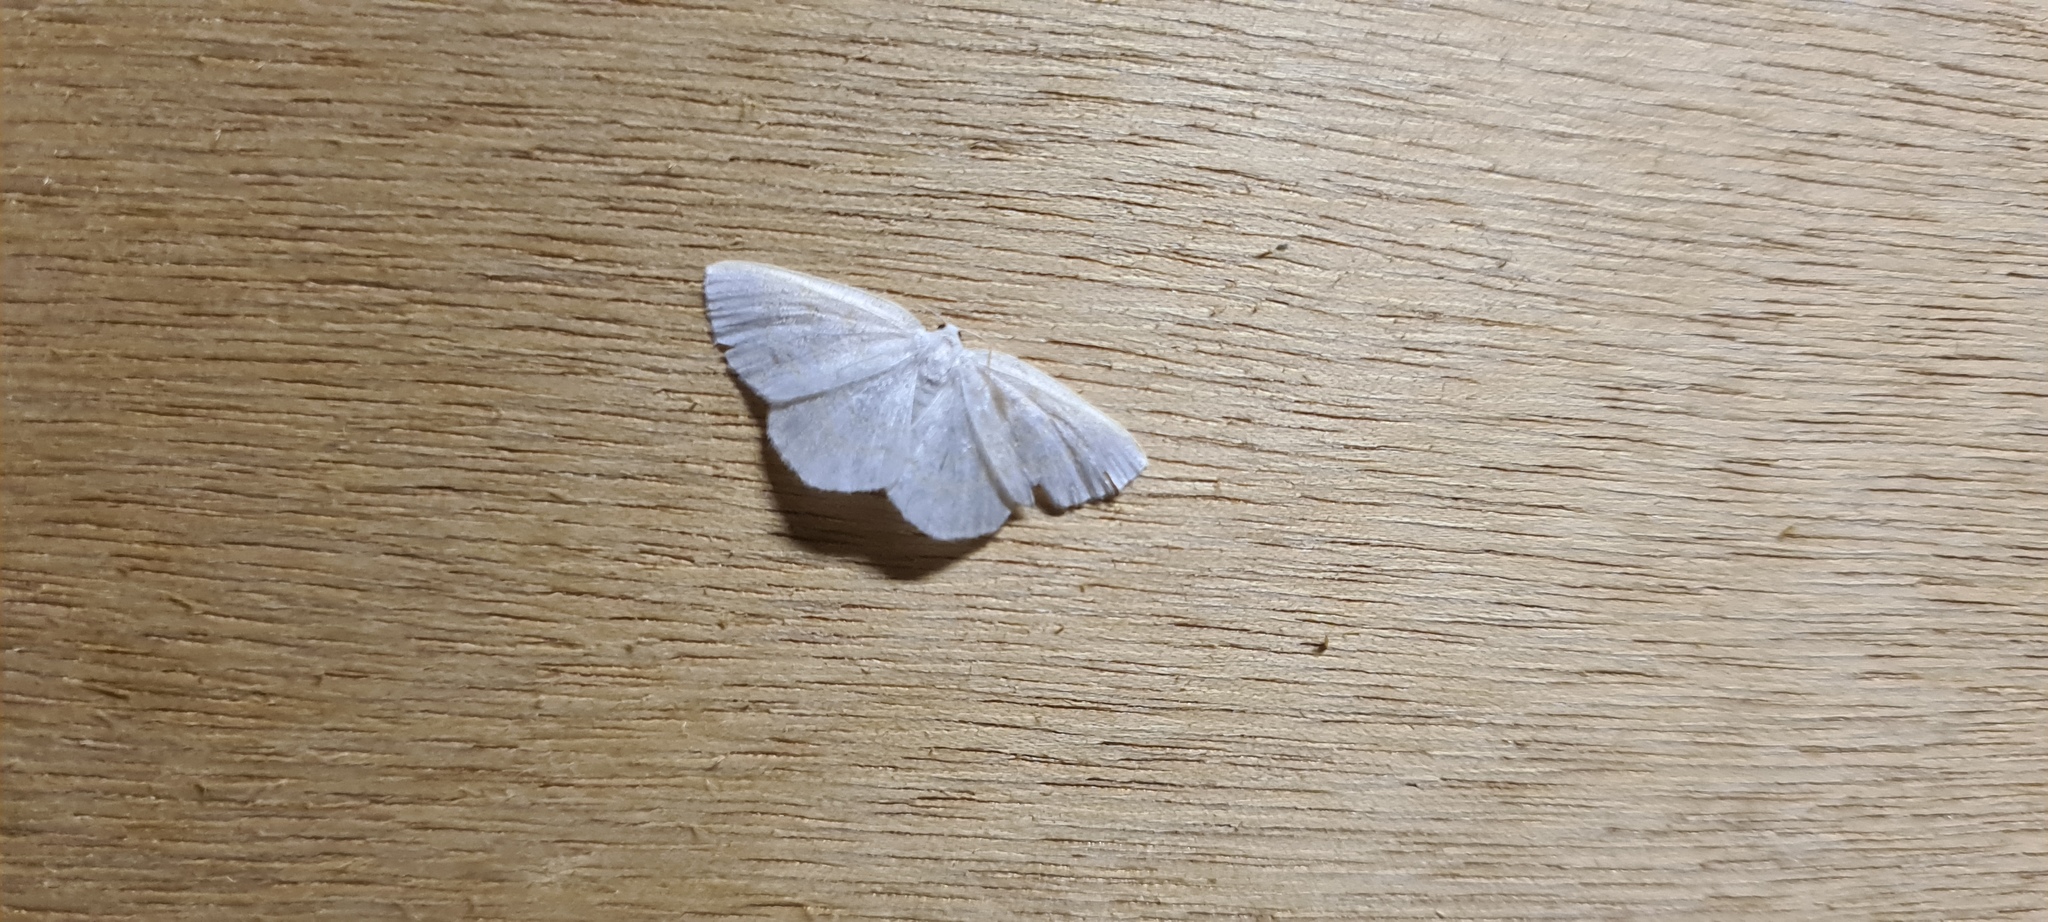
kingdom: Animalia
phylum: Arthropoda
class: Insecta
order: Lepidoptera
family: Geometridae
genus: Cabera
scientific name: Cabera exanthemata
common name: Common wave
